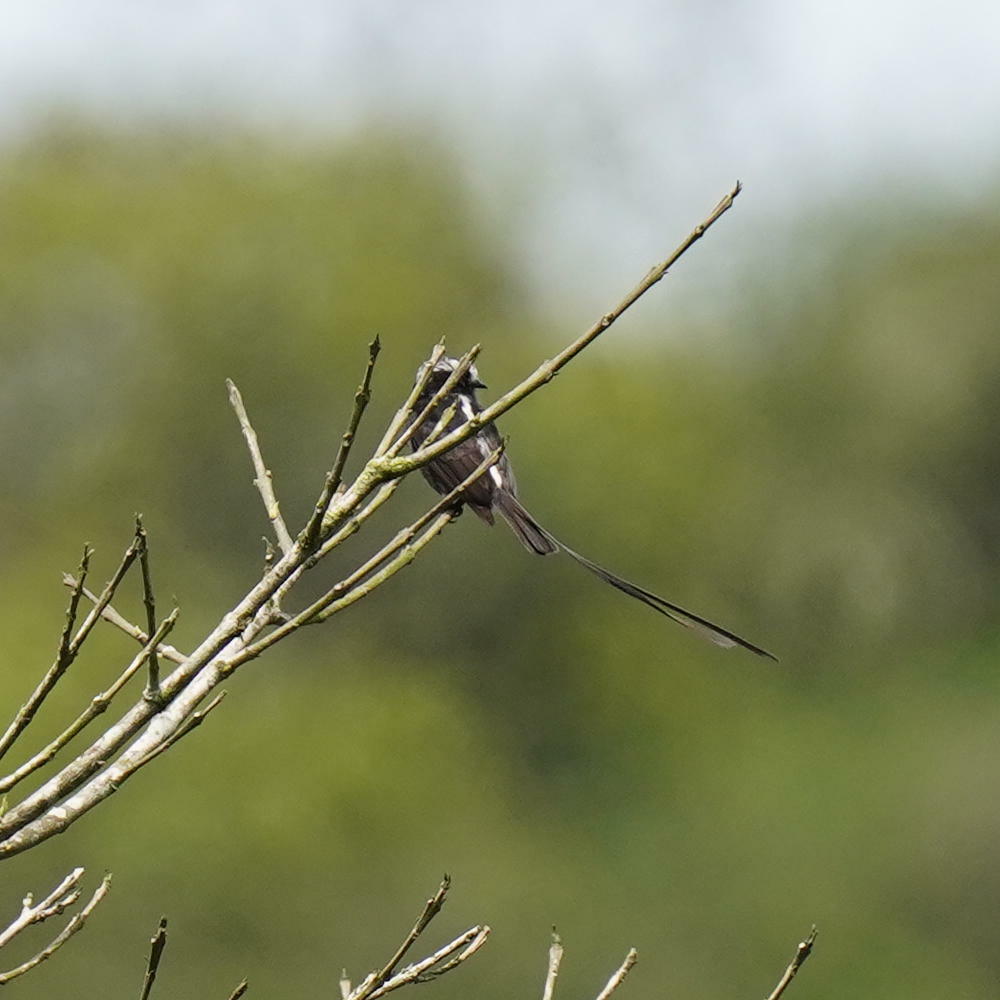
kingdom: Animalia
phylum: Chordata
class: Aves
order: Passeriformes
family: Tyrannidae
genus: Colonia
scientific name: Colonia colonus
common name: Long-tailed tyrant
